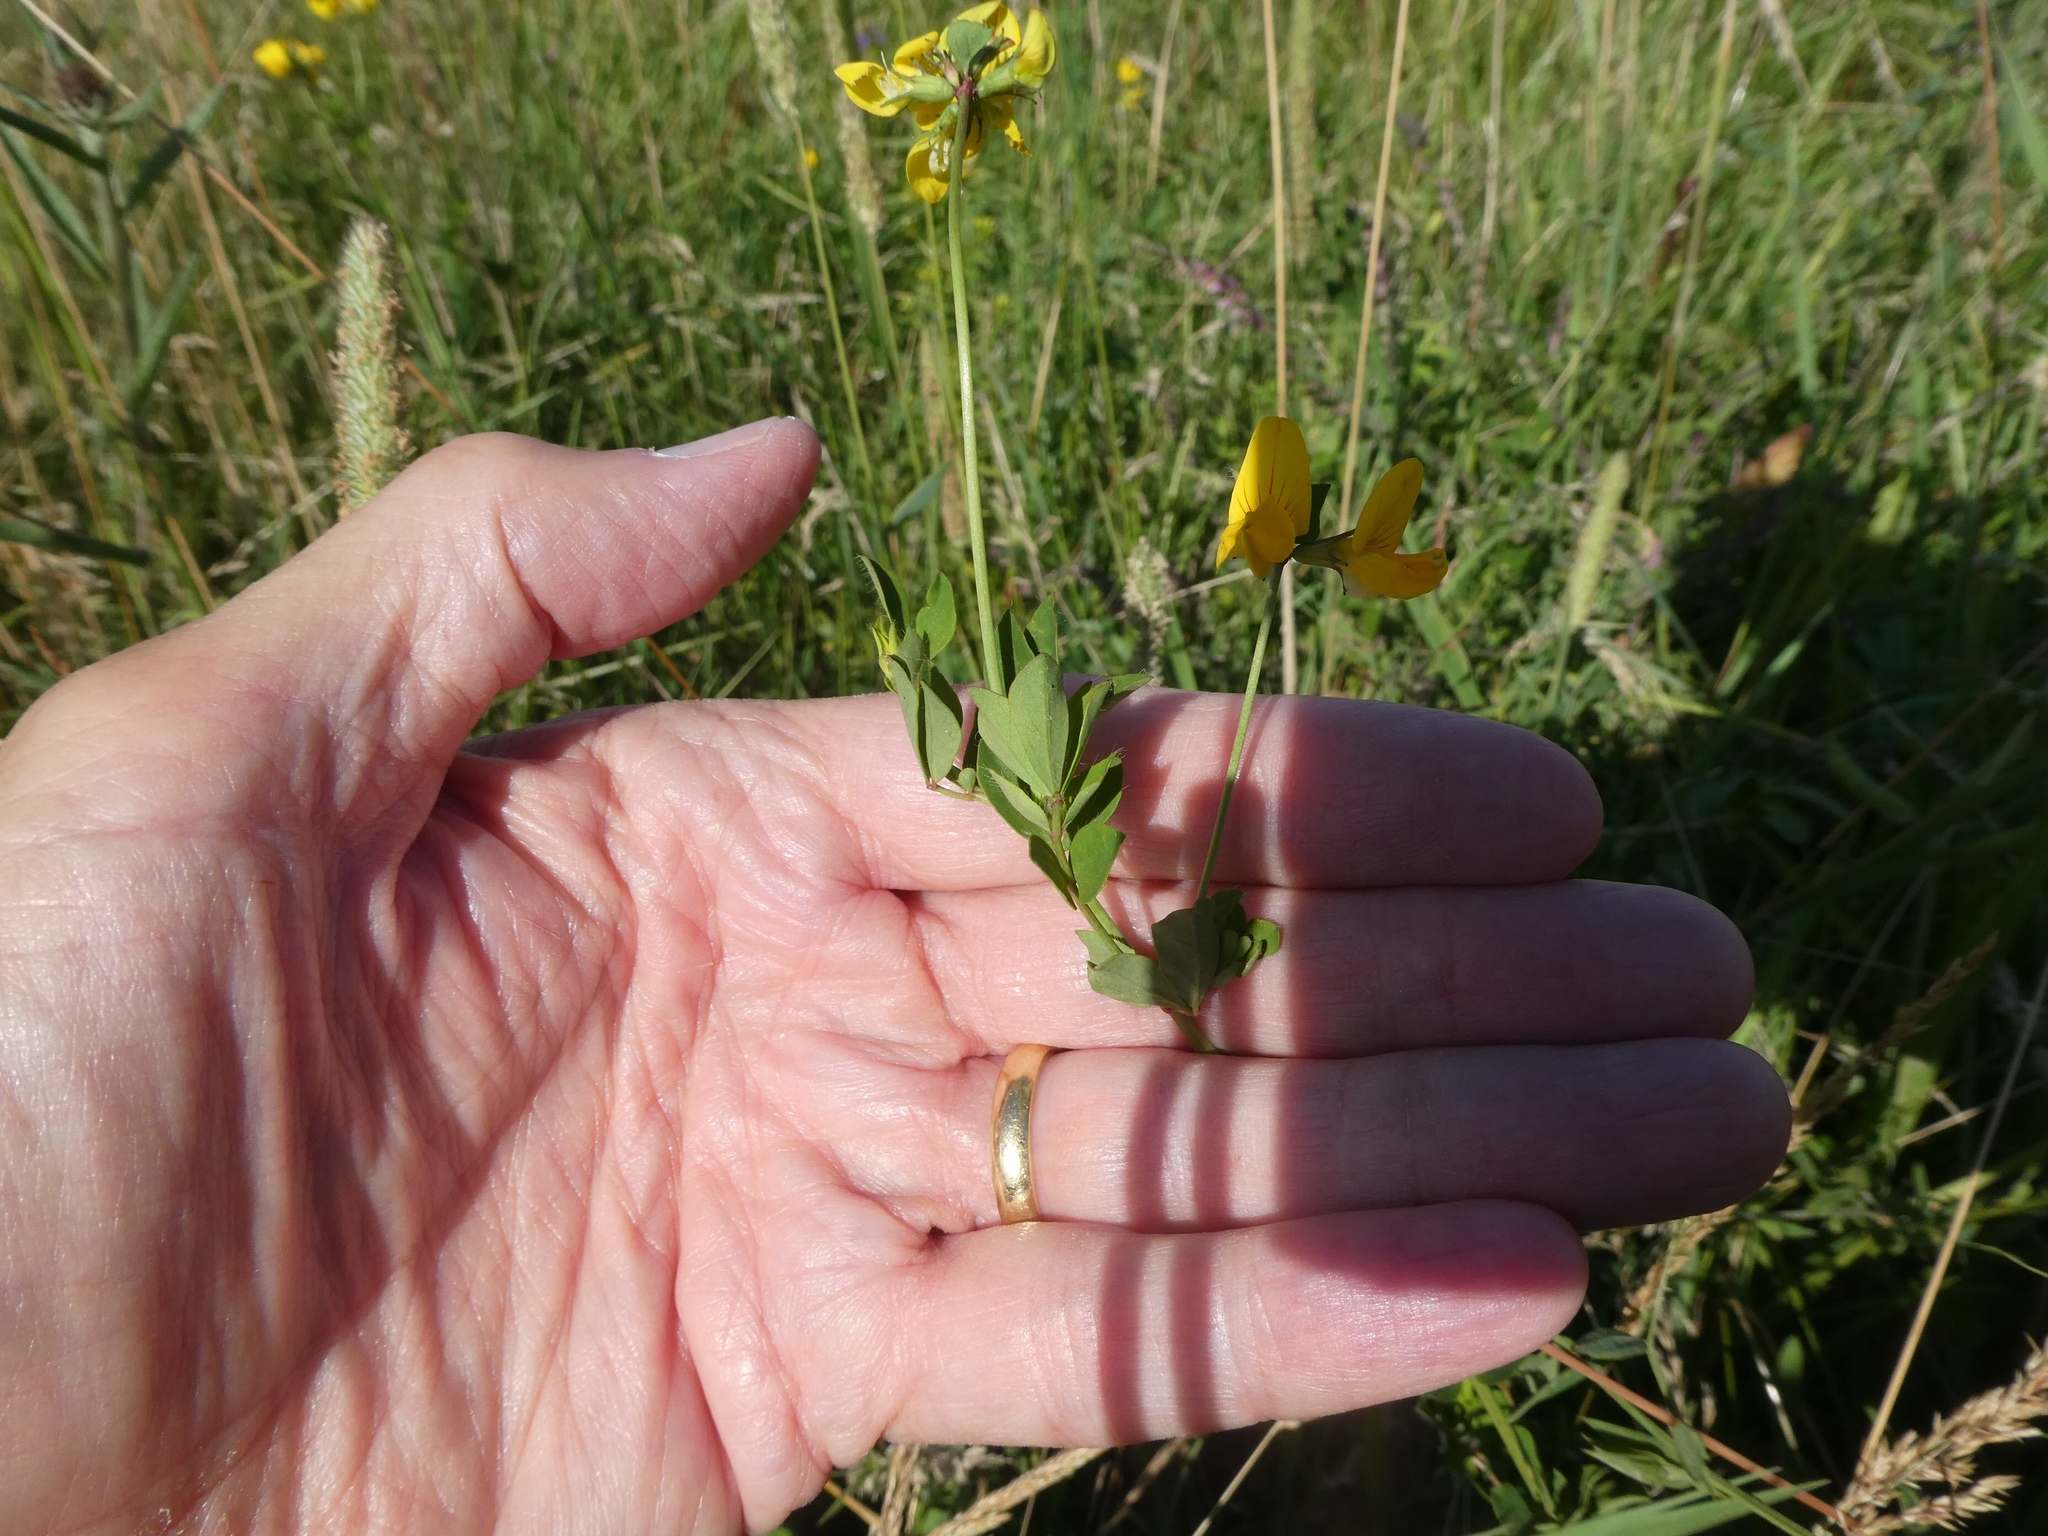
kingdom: Plantae
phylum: Tracheophyta
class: Magnoliopsida
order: Fabales
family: Fabaceae
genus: Lotus
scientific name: Lotus pedunculatus
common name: Greater birdsfoot-trefoil
